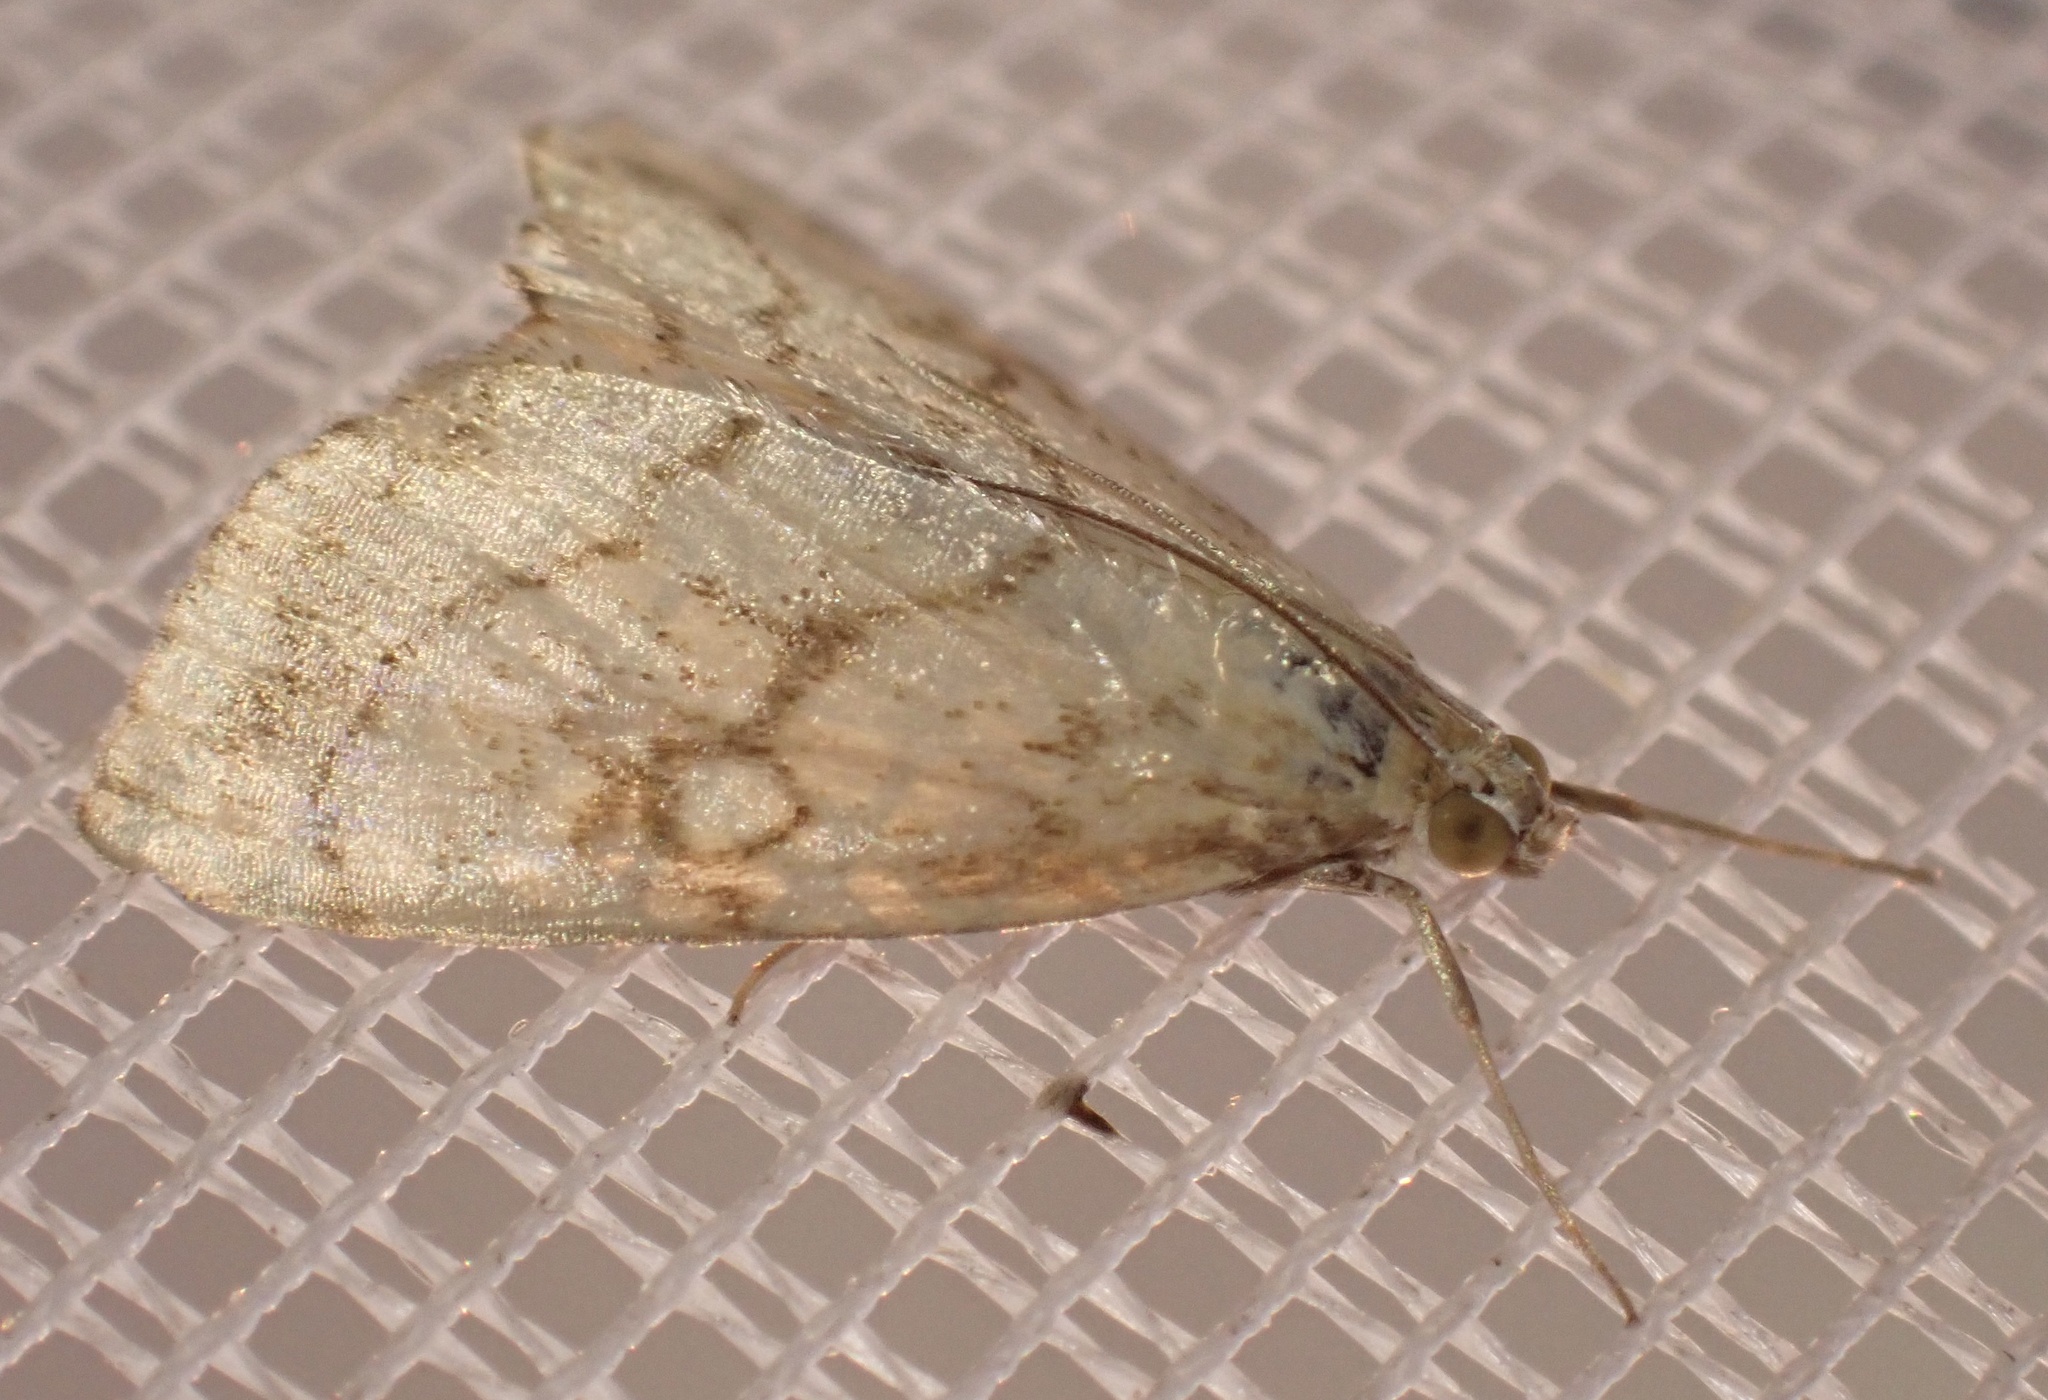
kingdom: Animalia
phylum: Arthropoda
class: Insecta
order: Lepidoptera
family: Crambidae
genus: Evergestis
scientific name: Evergestis pallidata
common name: Chequered pearl
